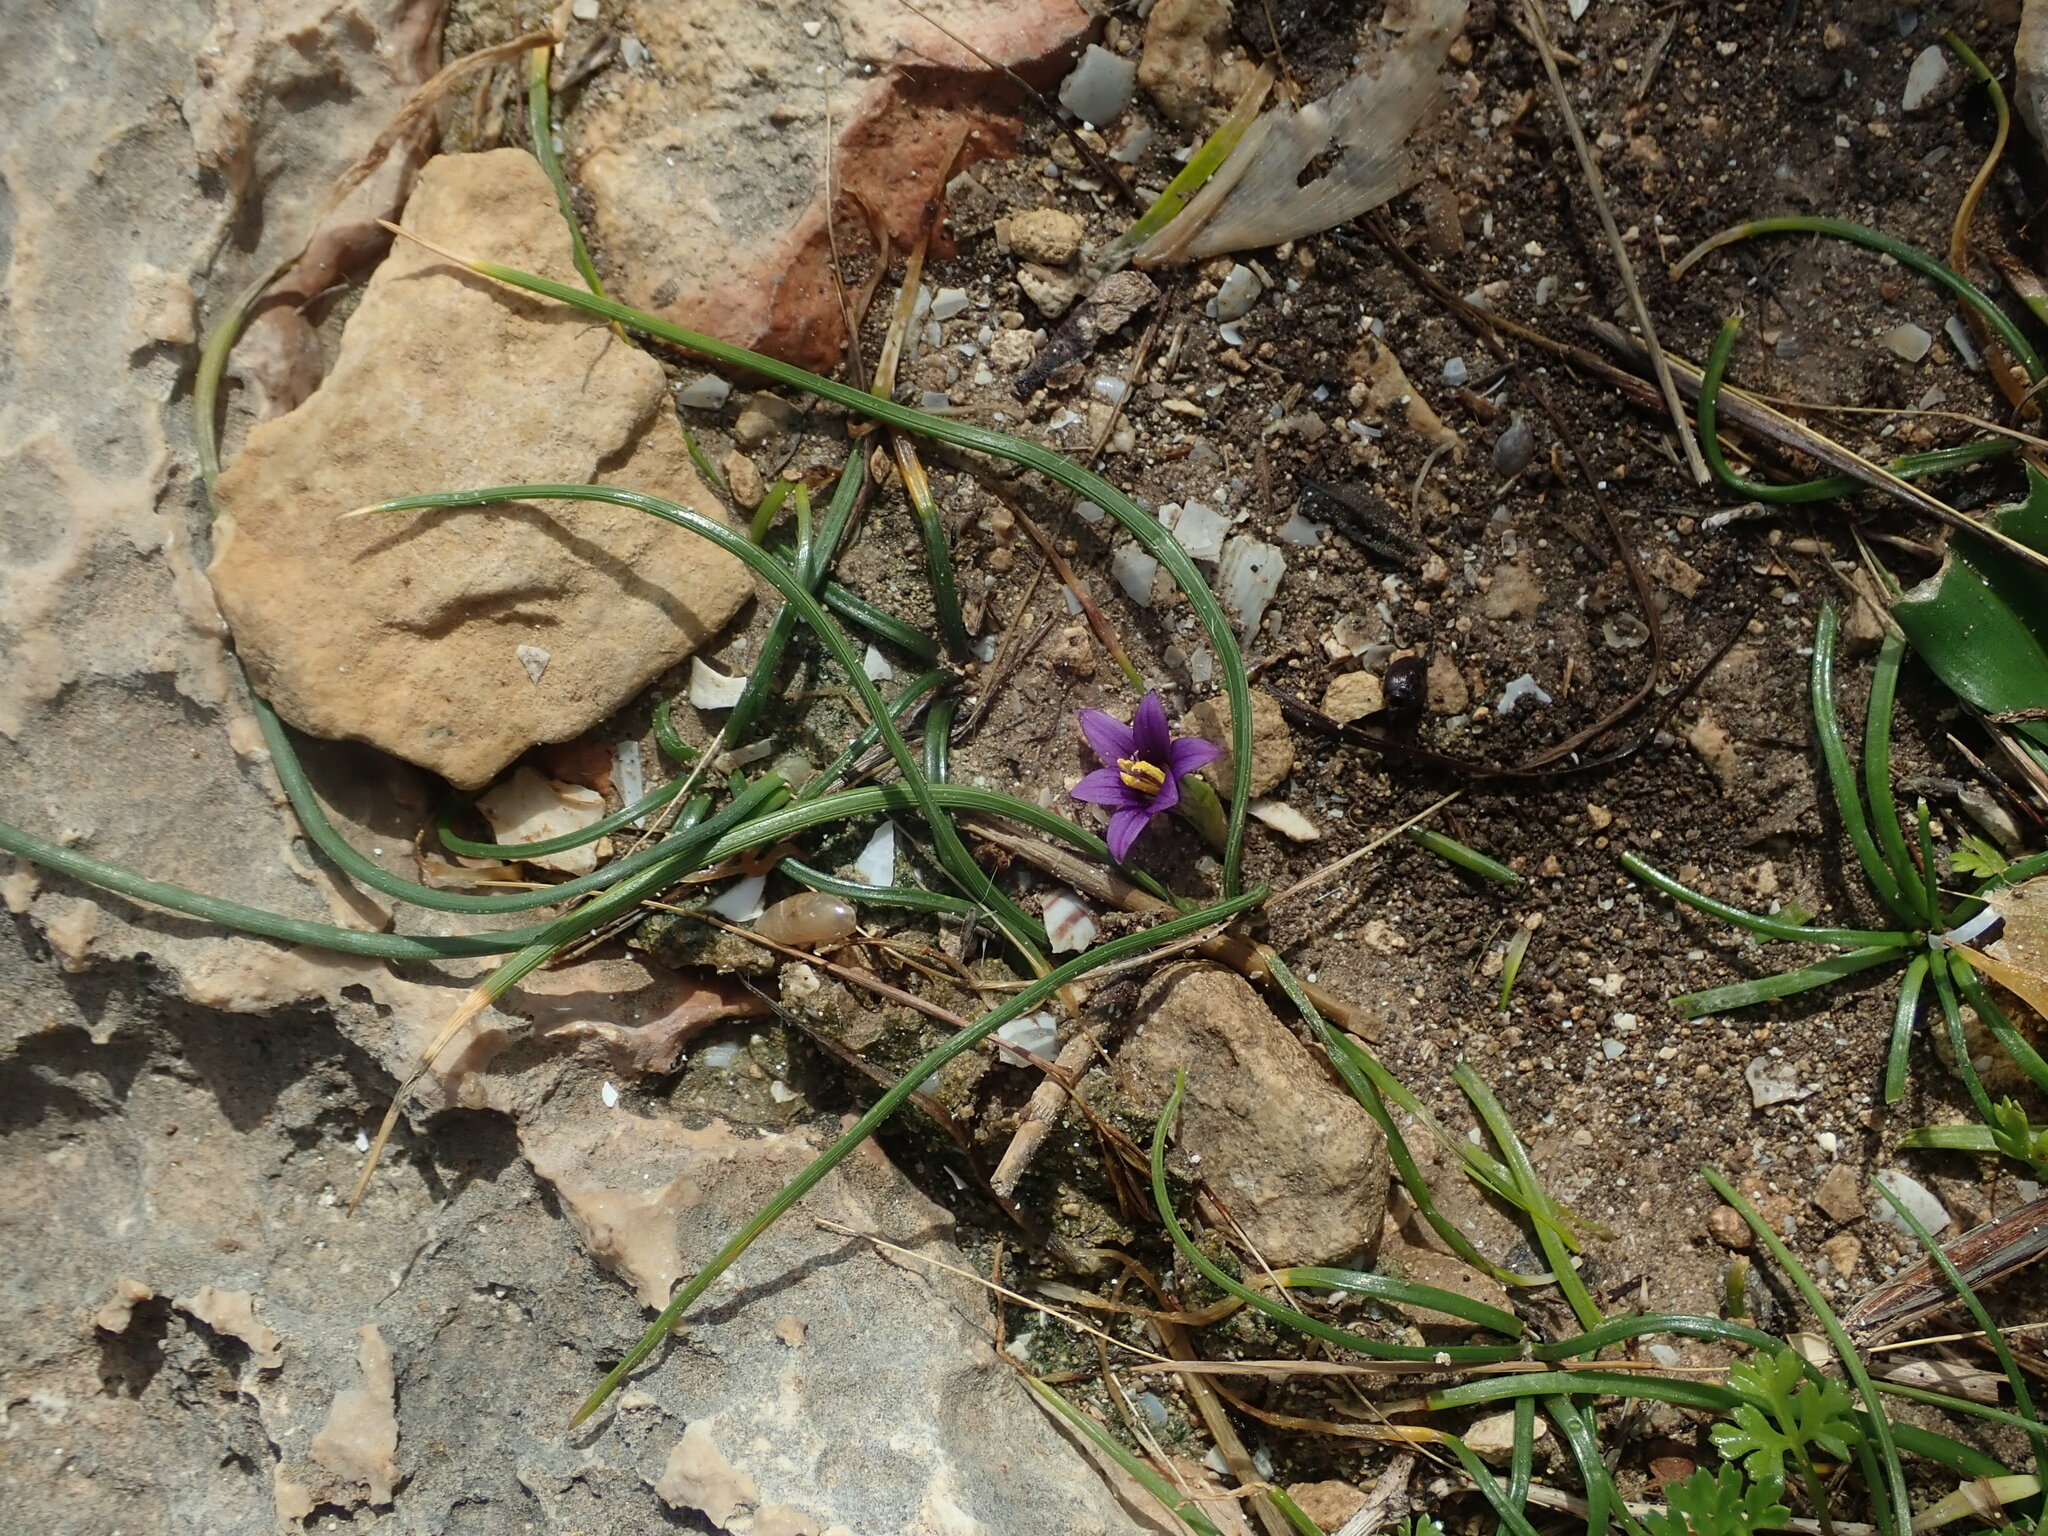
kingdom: Plantae
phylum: Tracheophyta
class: Liliopsida
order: Asparagales
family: Iridaceae
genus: Romulea
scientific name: Romulea variicolor
